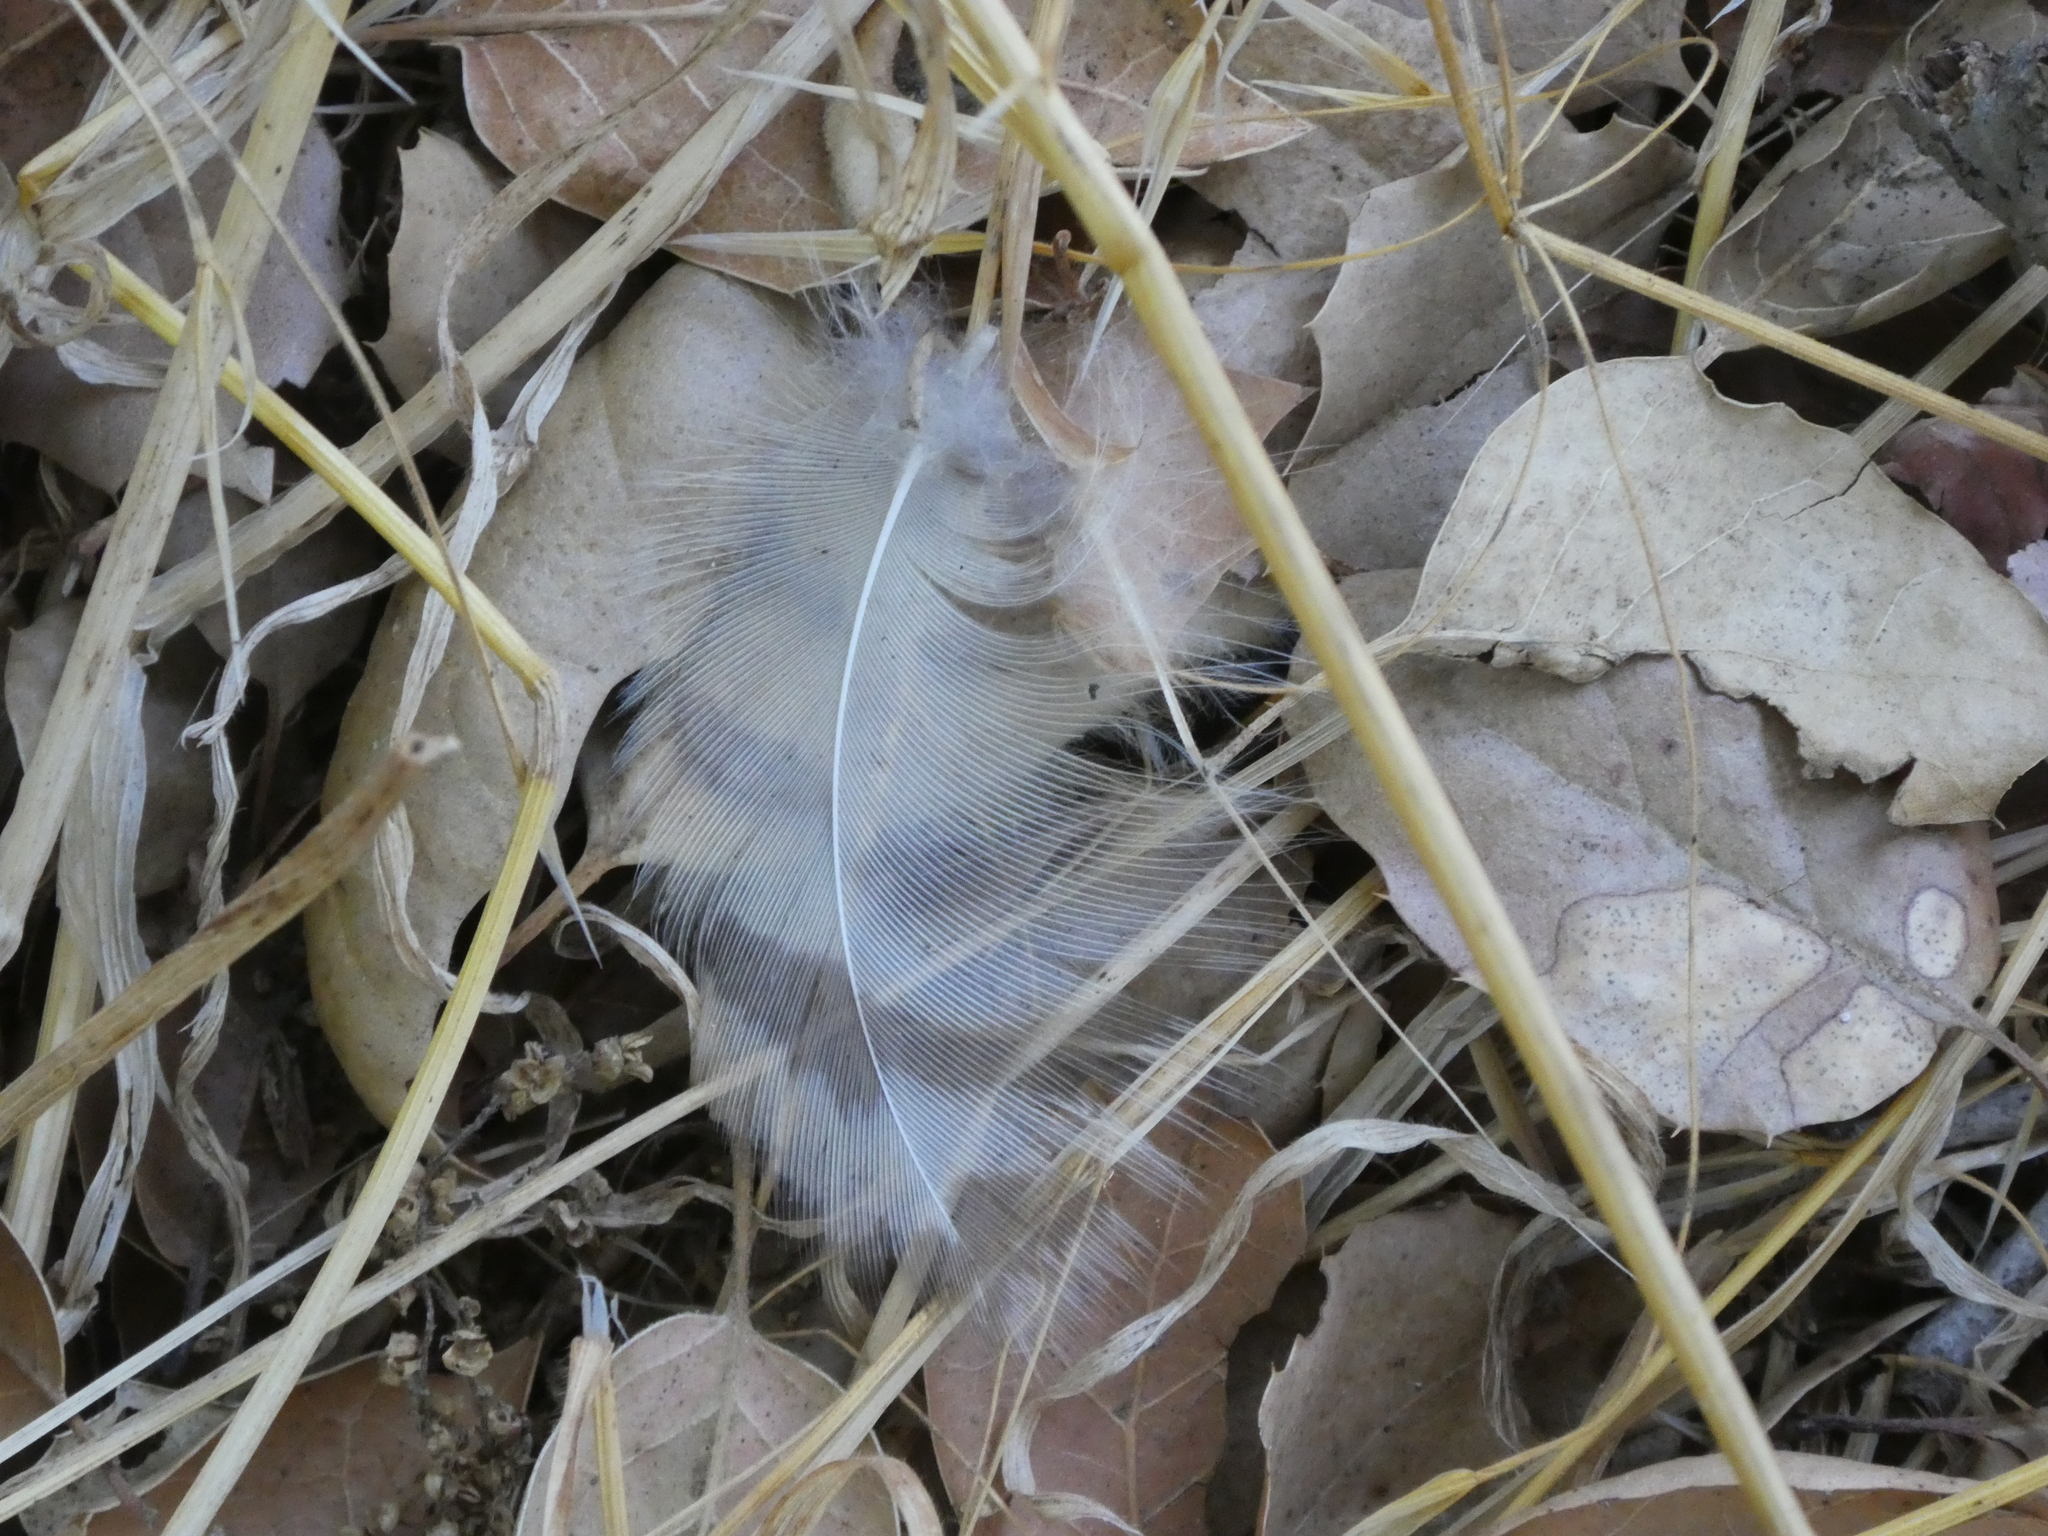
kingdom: Animalia
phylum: Chordata
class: Aves
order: Strigiformes
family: Strigidae
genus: Bubo
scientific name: Bubo virginianus
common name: Great horned owl
